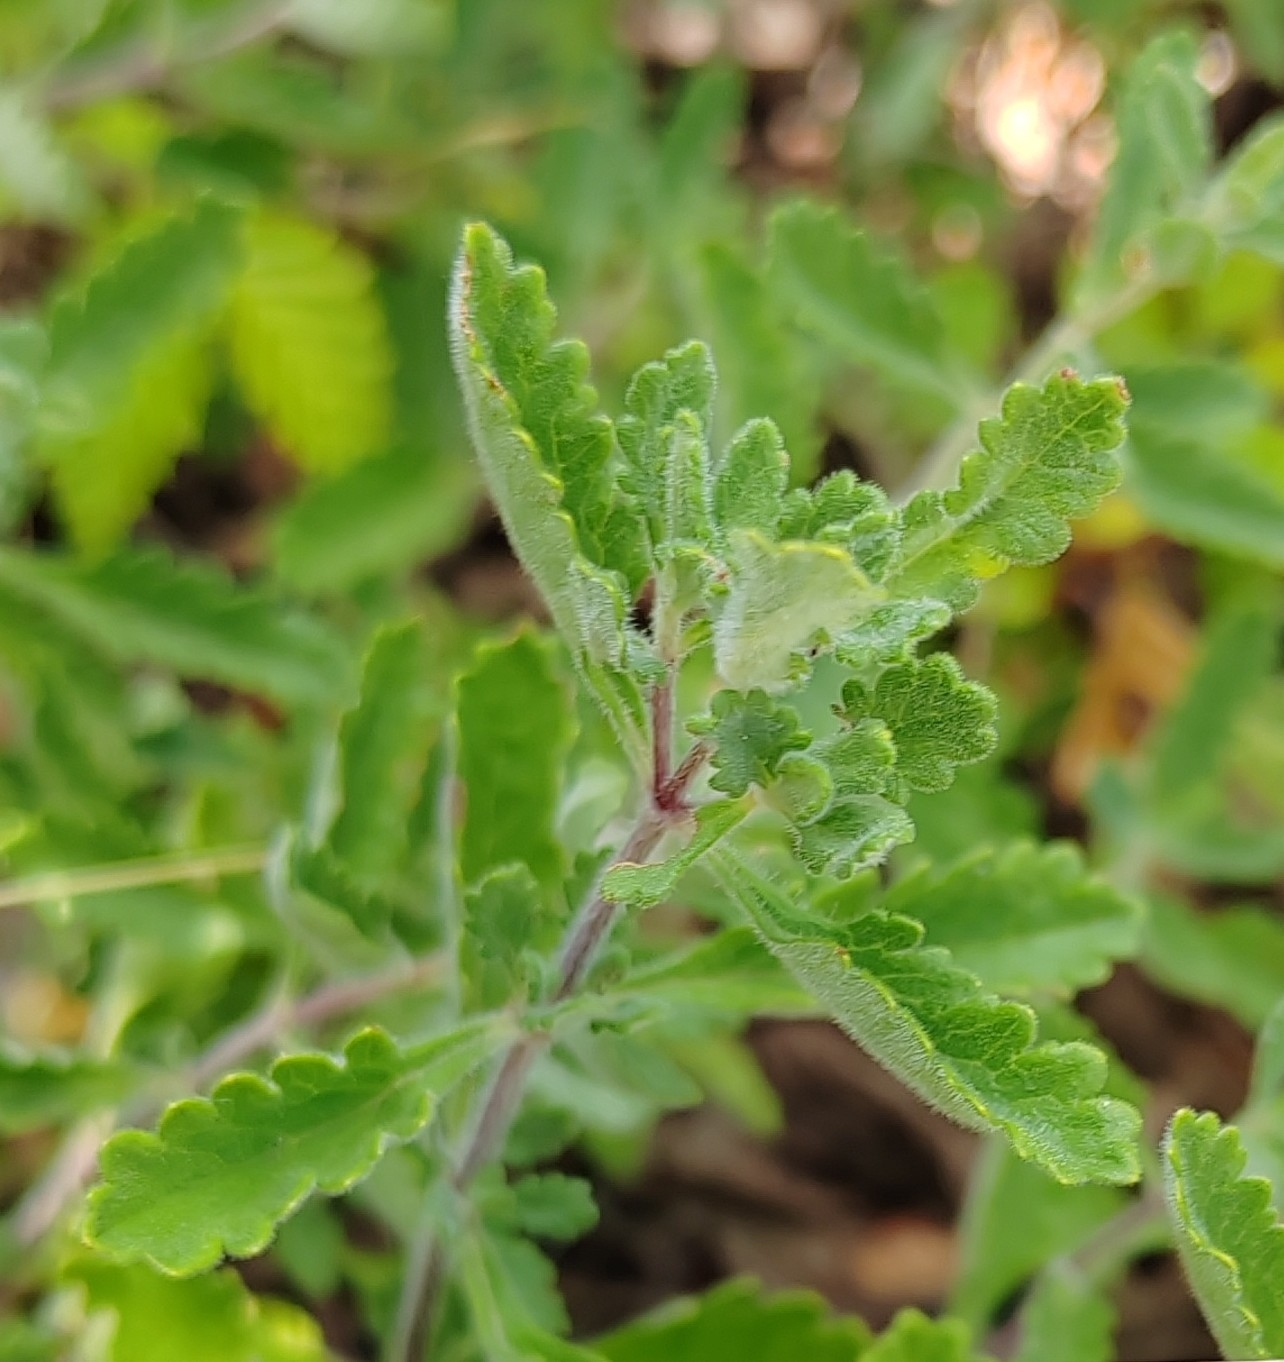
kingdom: Plantae
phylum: Tracheophyta
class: Magnoliopsida
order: Lamiales
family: Lamiaceae
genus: Teucrium
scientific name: Teucrium chamaedrys
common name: Wall germander
